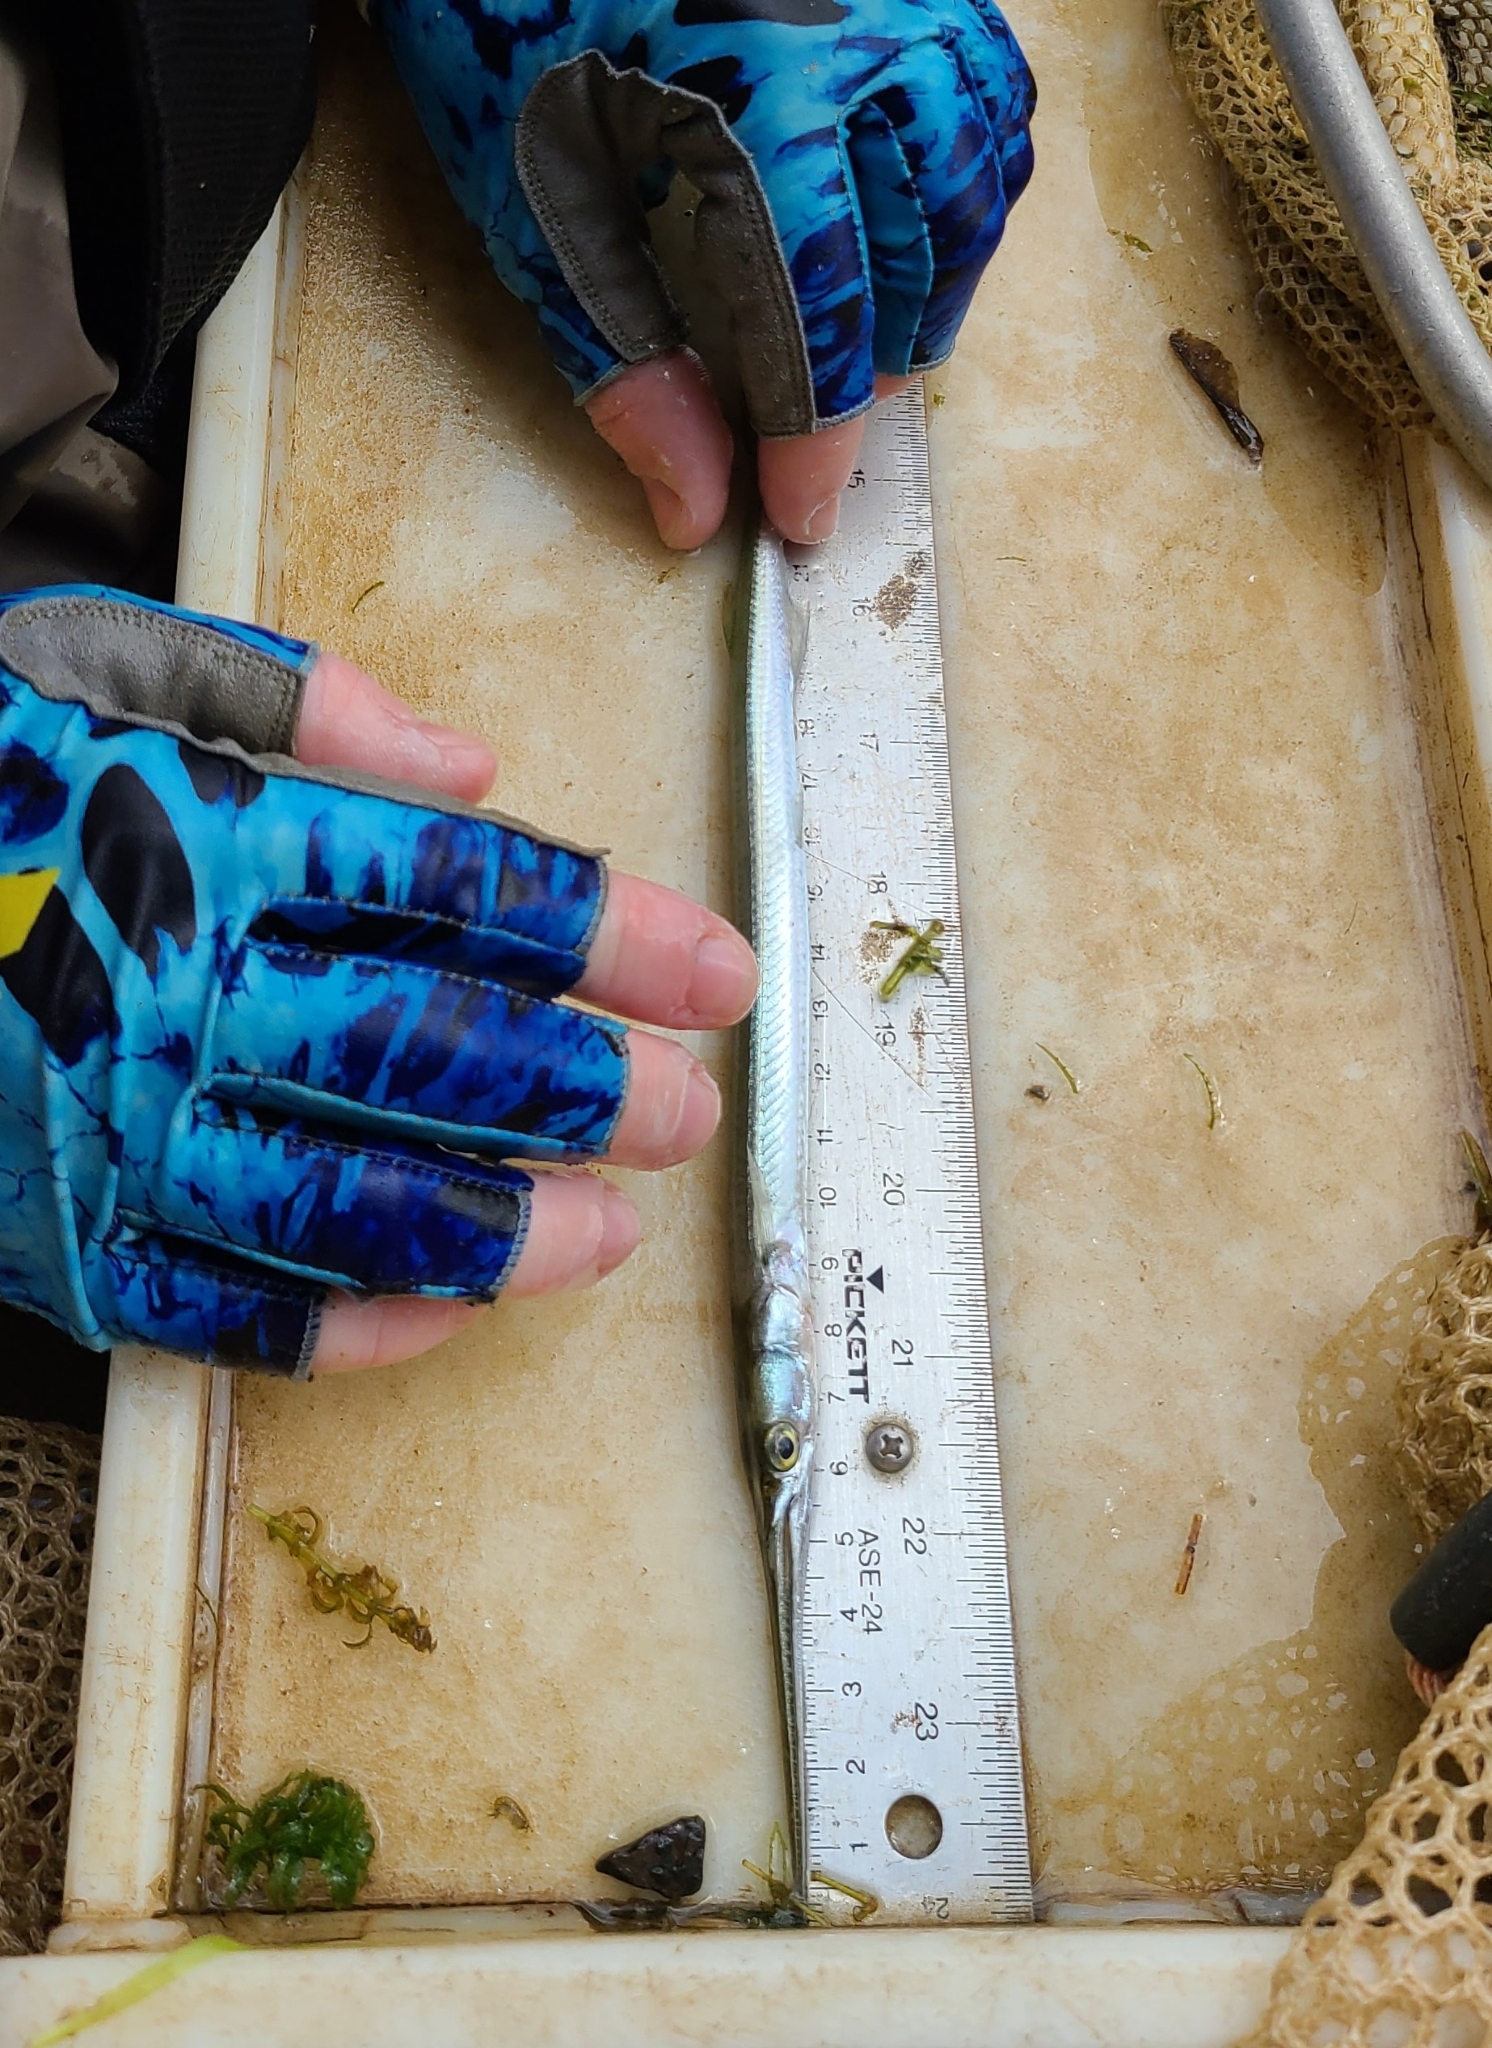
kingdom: Animalia
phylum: Chordata
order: Beloniformes
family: Belonidae
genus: Strongylura
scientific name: Strongylura marina
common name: Atlantic needlefish
